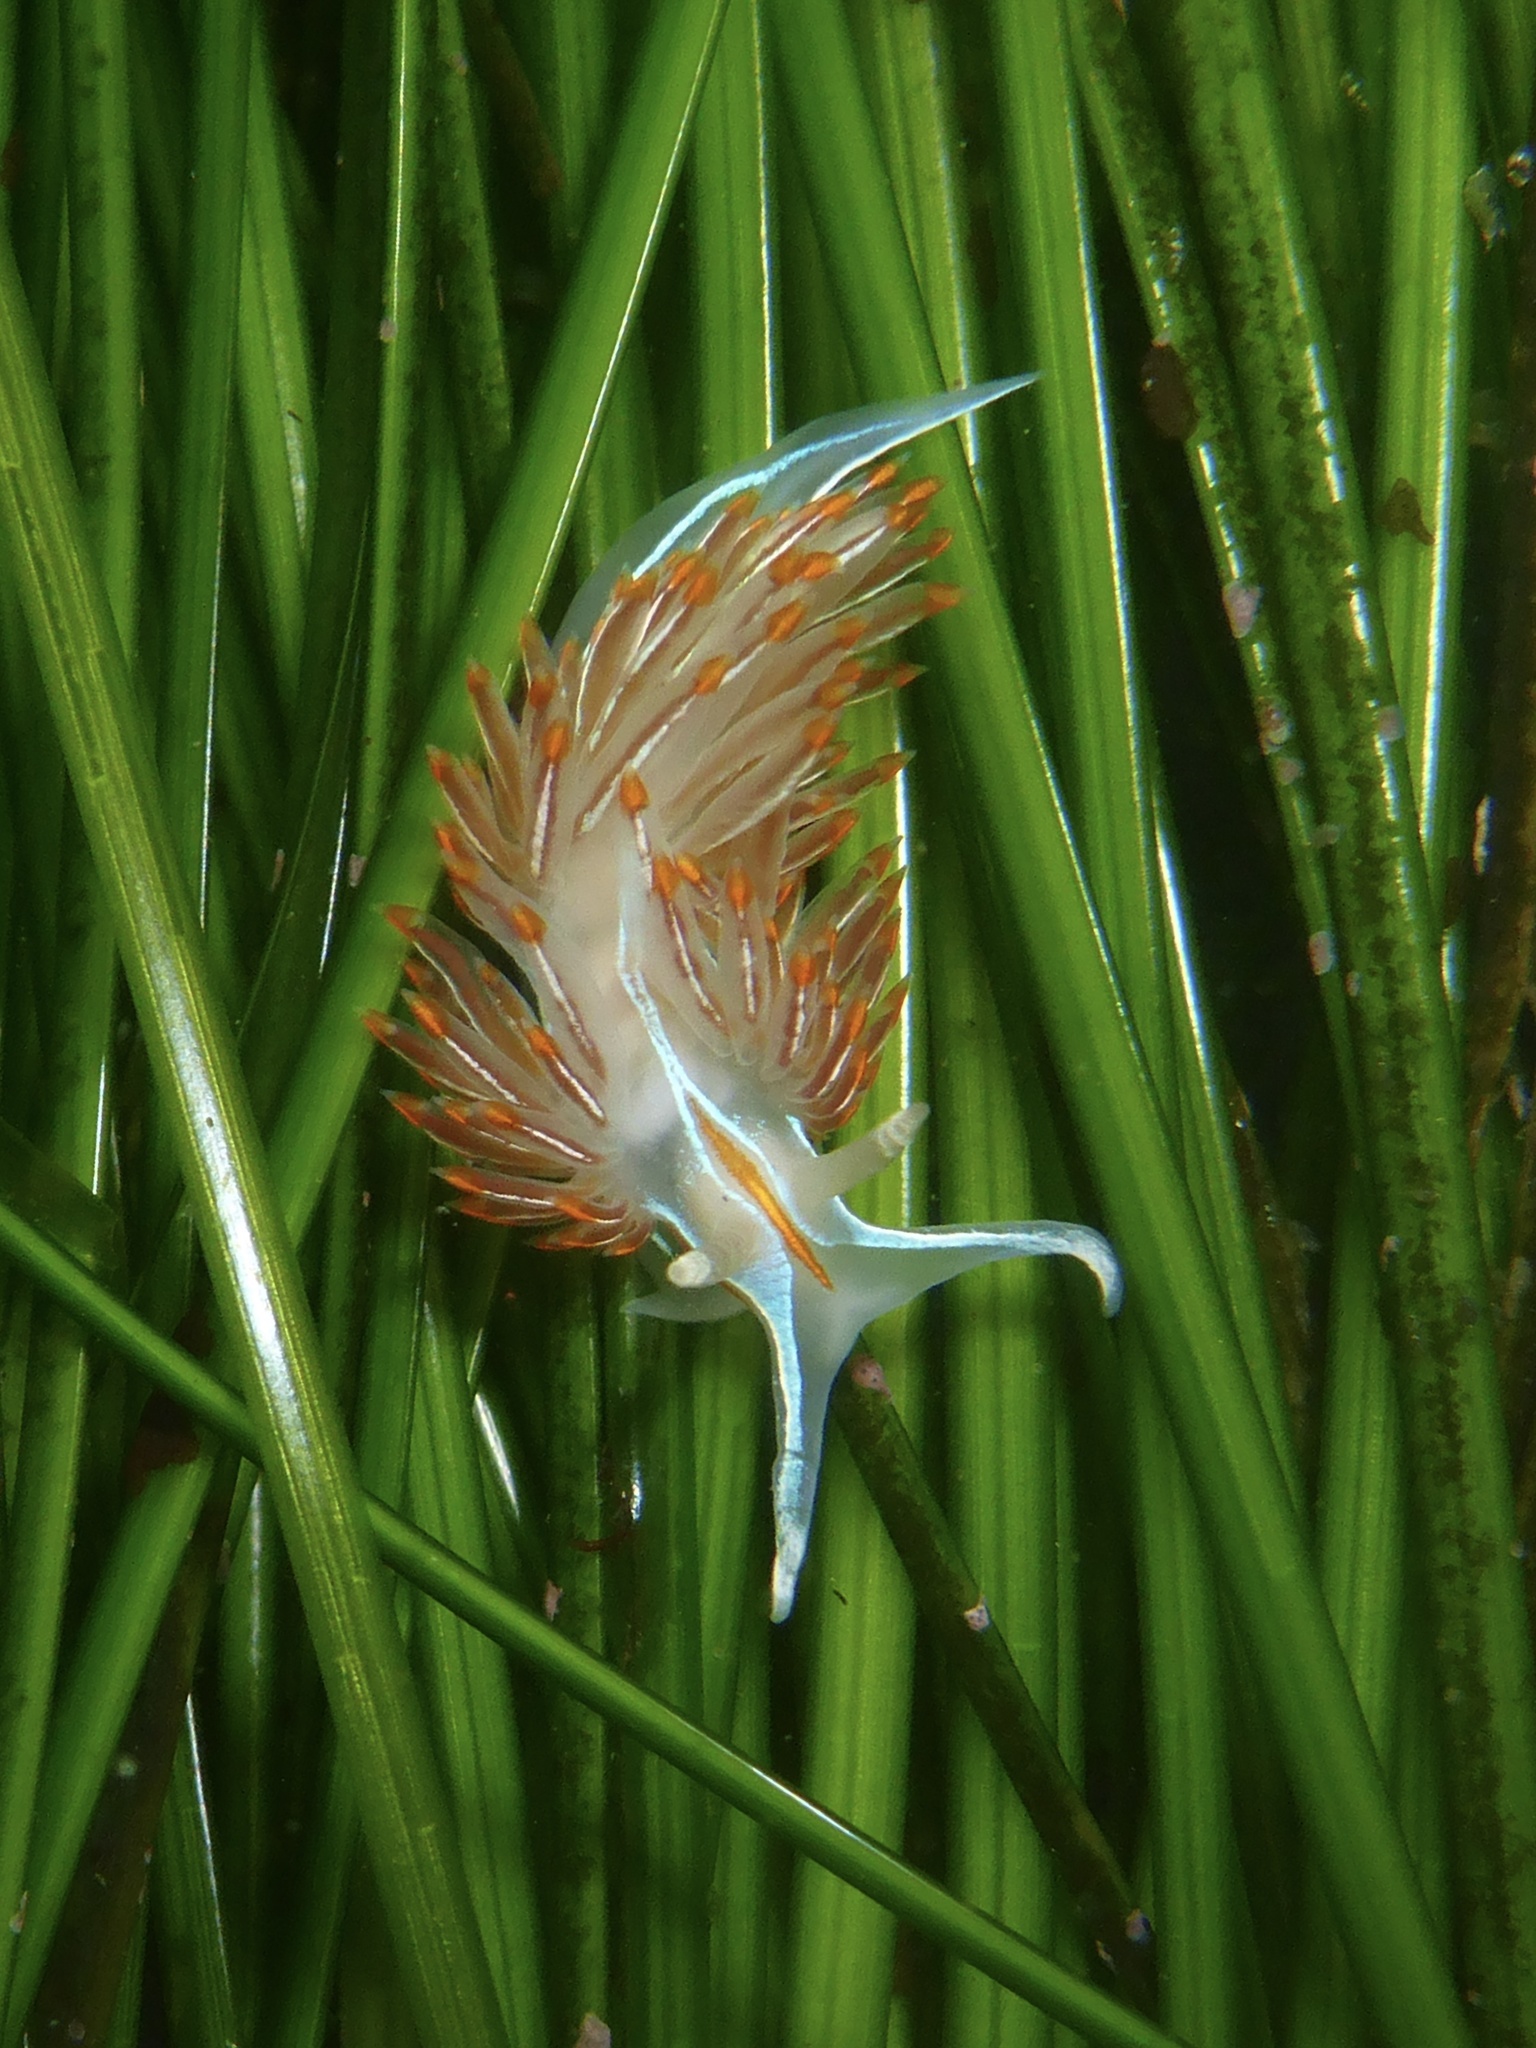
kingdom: Animalia
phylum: Mollusca
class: Gastropoda
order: Nudibranchia
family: Myrrhinidae
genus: Hermissenda
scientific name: Hermissenda crassicornis
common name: Hermissenda
